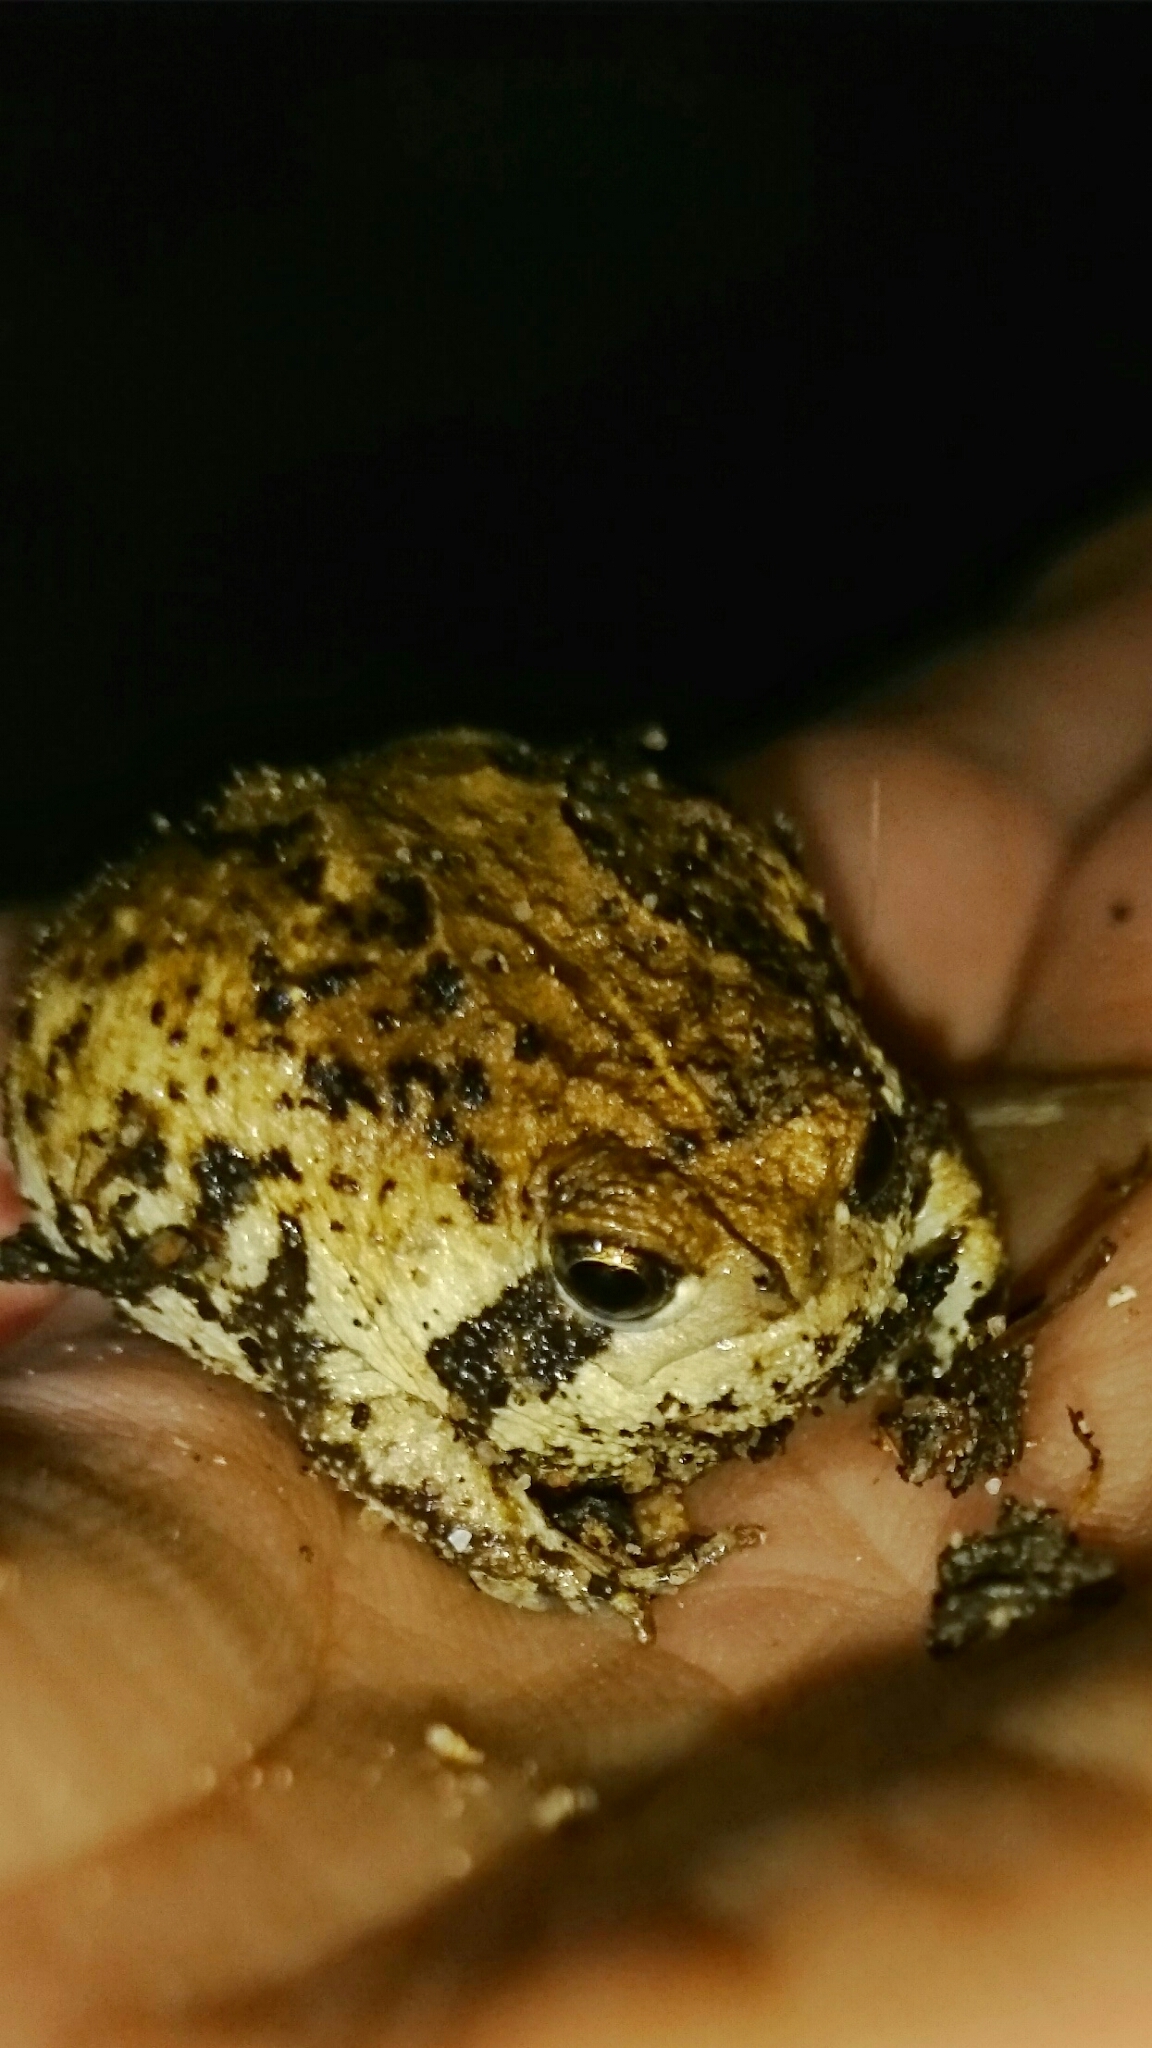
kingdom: Animalia
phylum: Chordata
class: Amphibia
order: Anura
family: Brevicipitidae
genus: Breviceps
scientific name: Breviceps rosei
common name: Rose's short-headed frog
